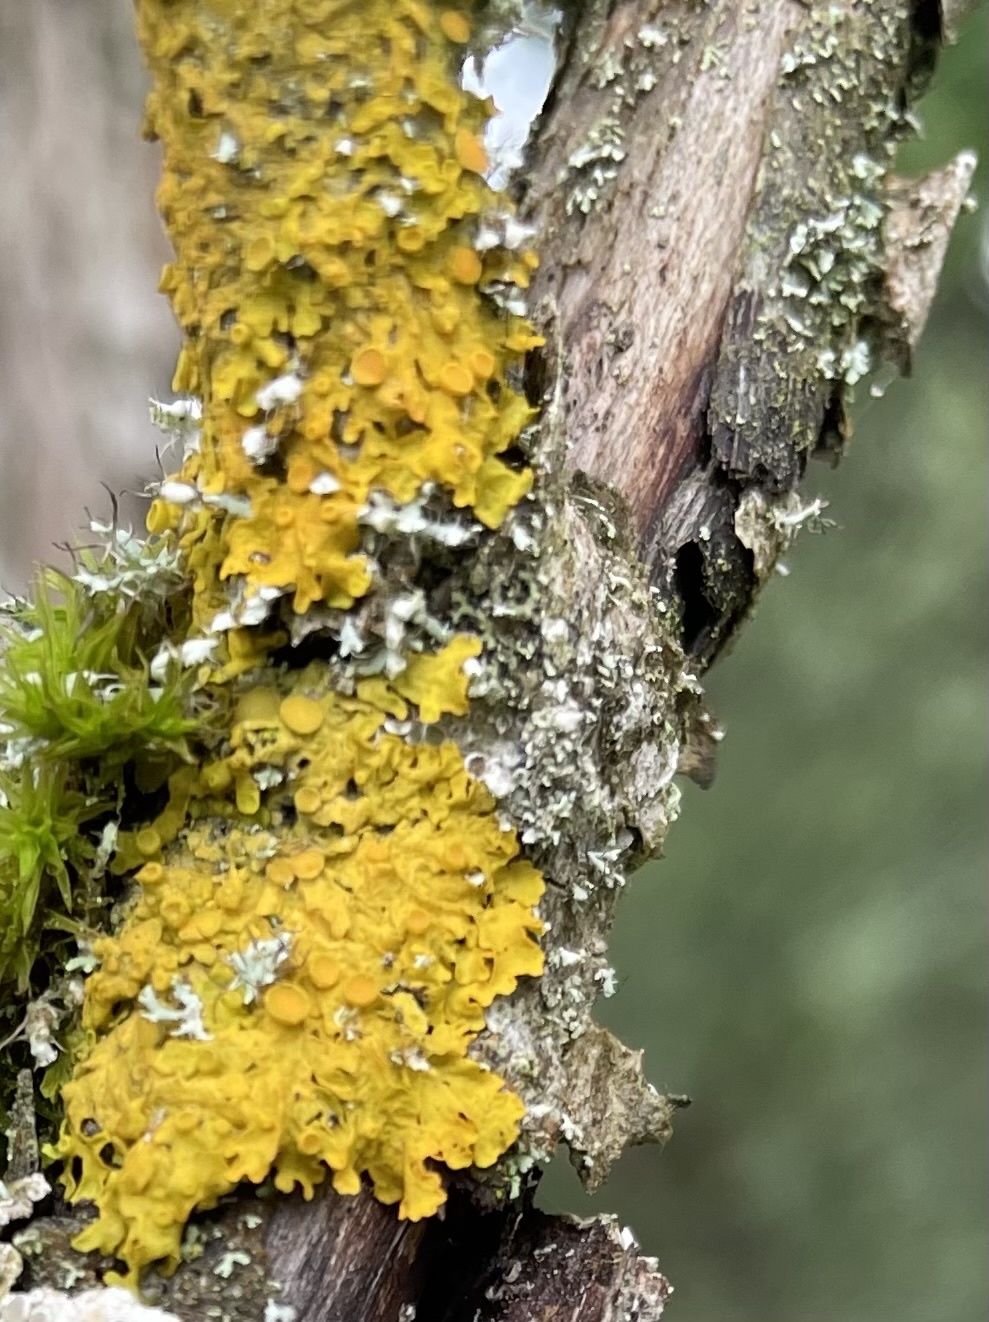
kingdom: Fungi
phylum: Ascomycota
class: Lecanoromycetes
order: Teloschistales
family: Teloschistaceae
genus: Xanthoria
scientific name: Xanthoria parietina
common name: Common orange lichen
